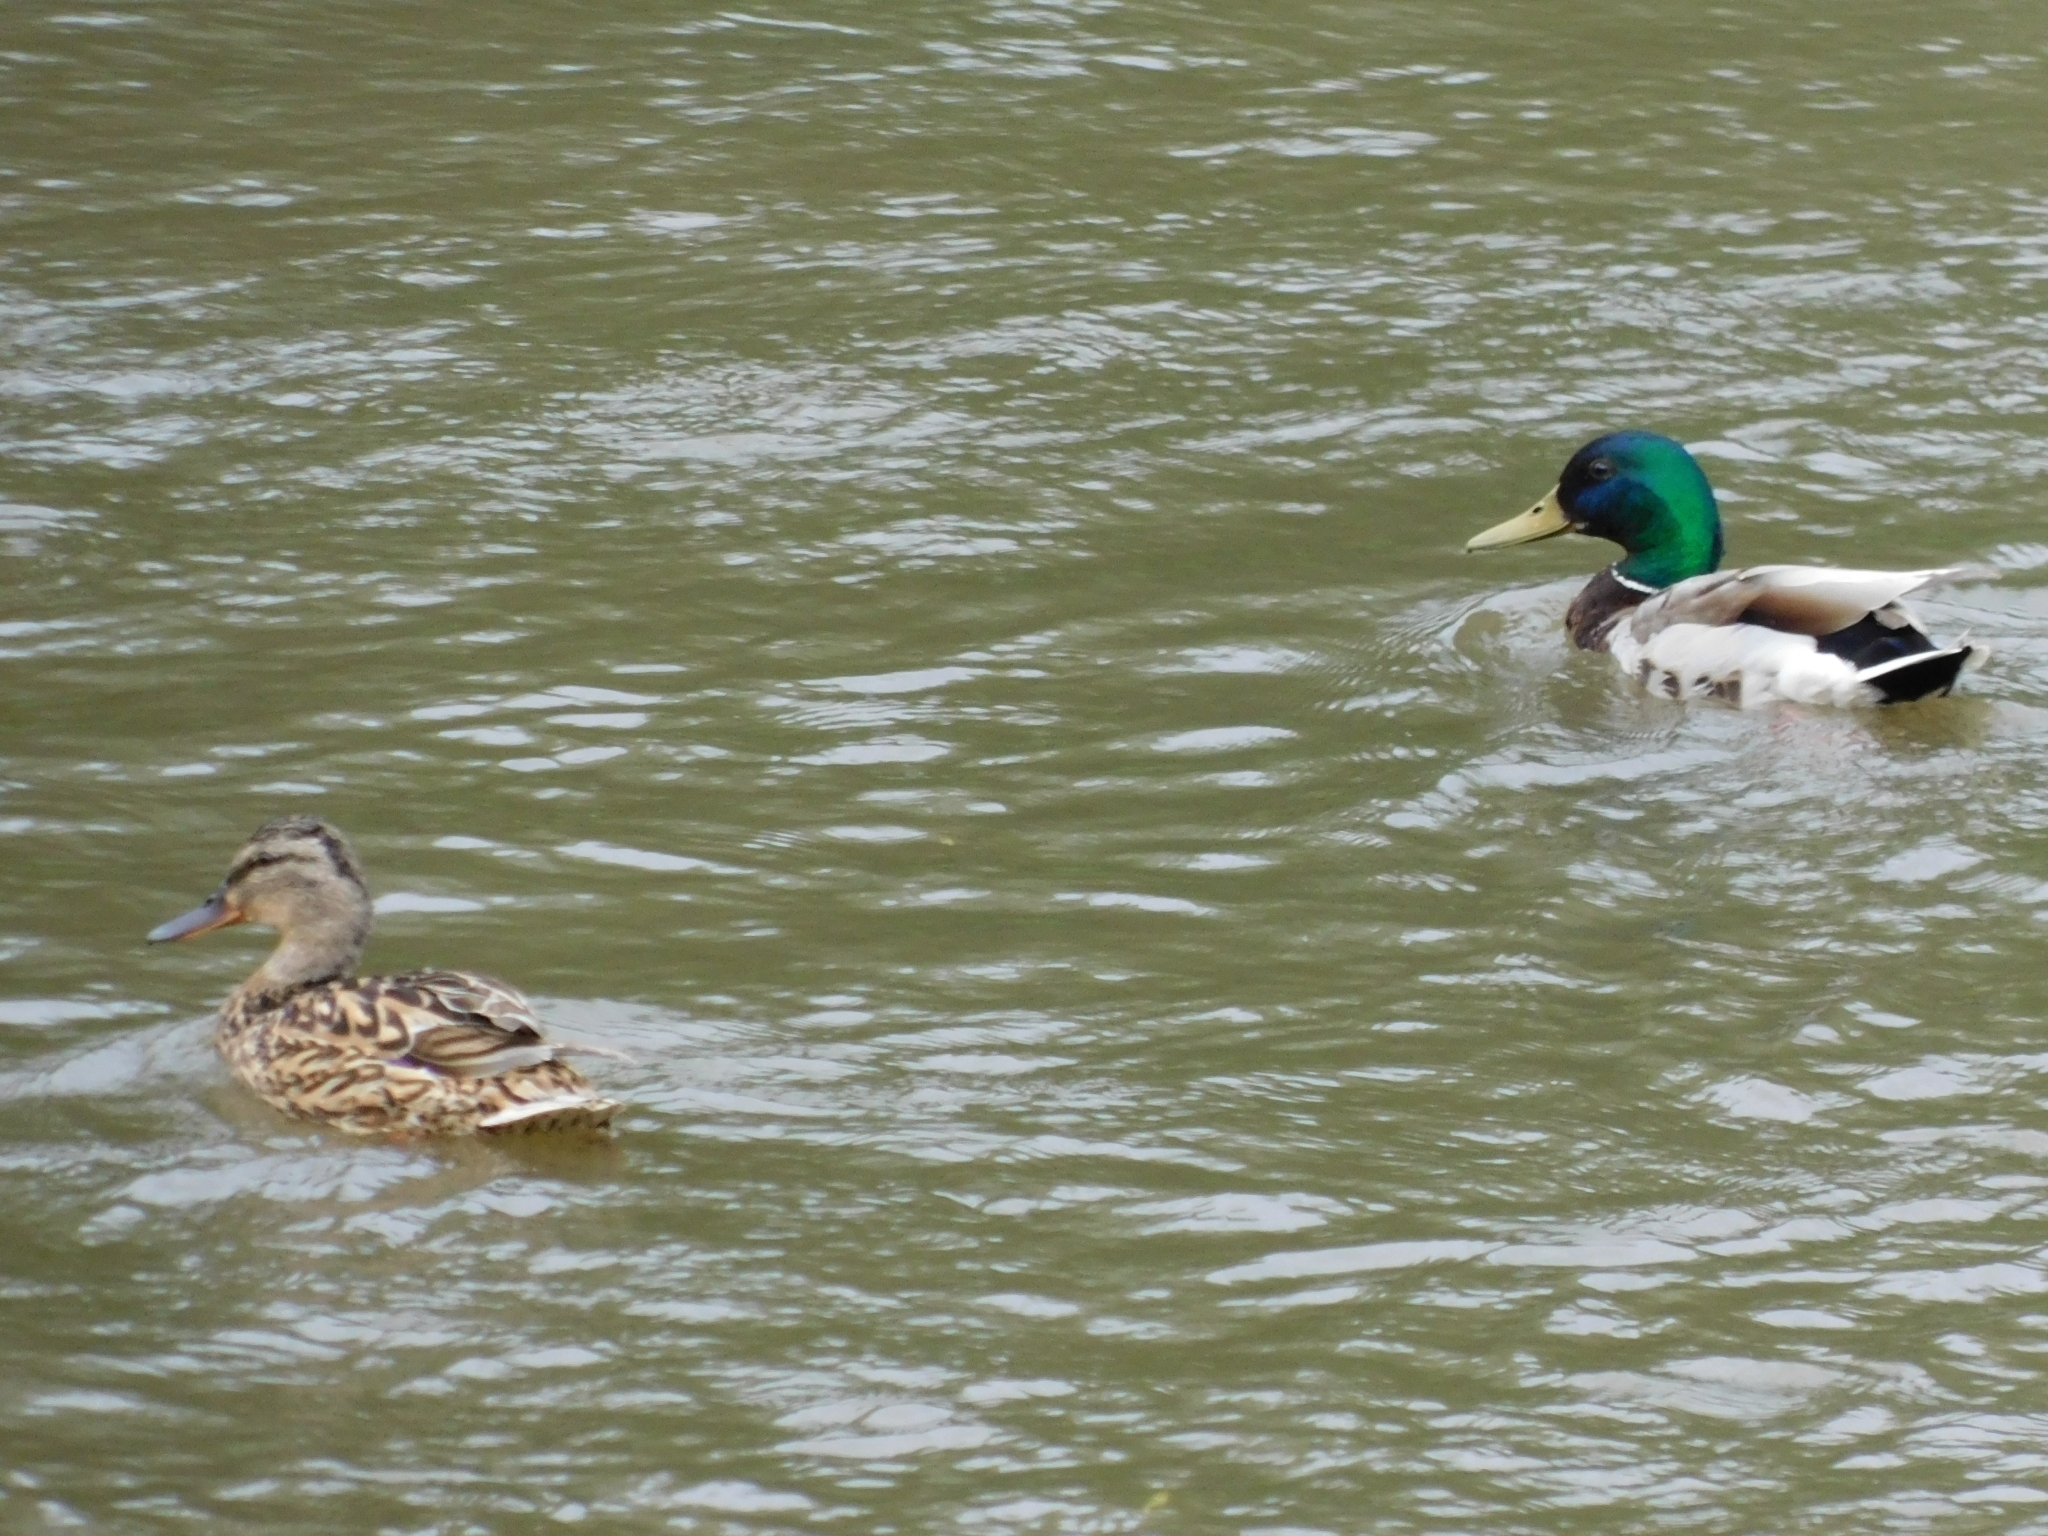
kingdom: Animalia
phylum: Chordata
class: Aves
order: Anseriformes
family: Anatidae
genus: Anas
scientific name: Anas platyrhynchos
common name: Mallard
